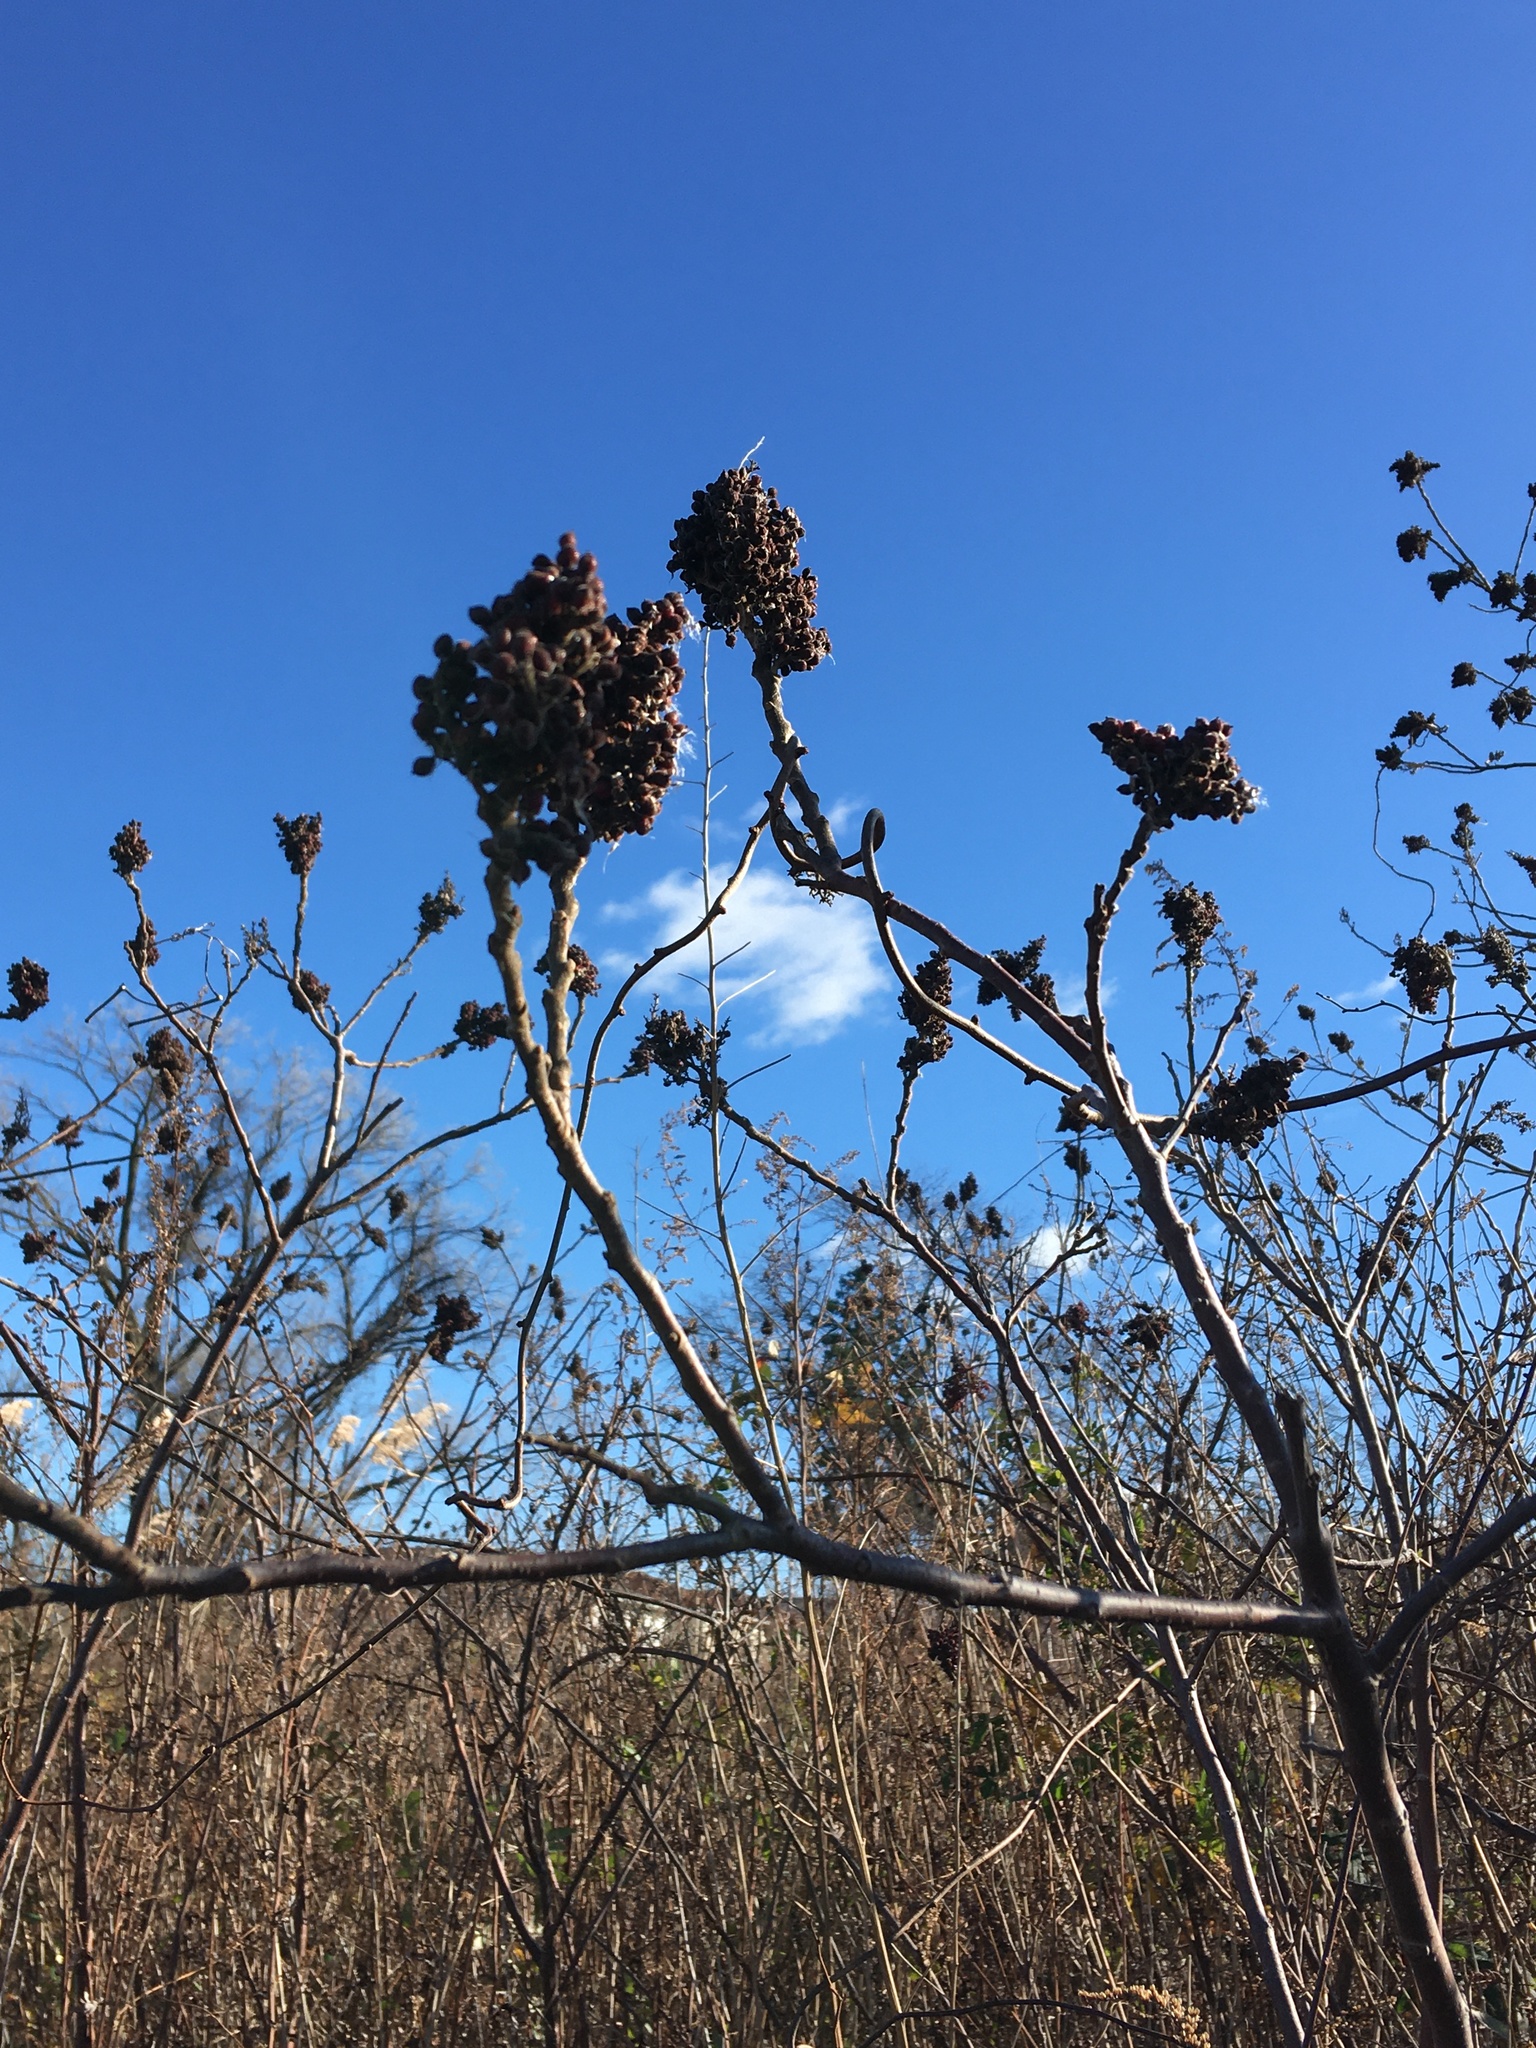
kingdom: Plantae
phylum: Tracheophyta
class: Magnoliopsida
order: Sapindales
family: Anacardiaceae
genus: Rhus
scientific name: Rhus copallina
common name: Shining sumac
